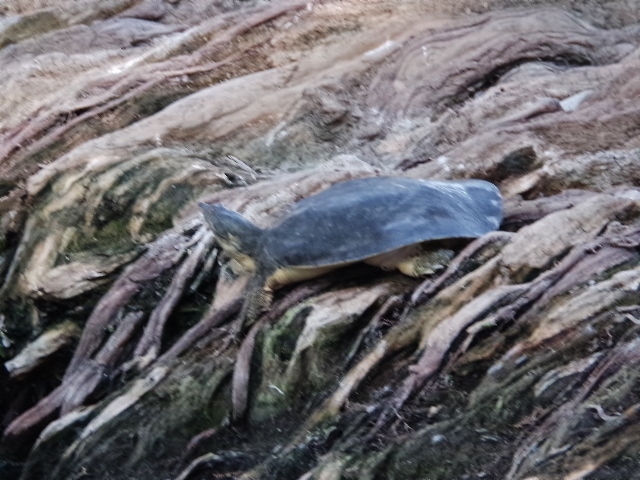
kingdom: Animalia
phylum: Chordata
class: Testudines
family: Trionychidae
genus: Apalone
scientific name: Apalone spinifera
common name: Spiny softshell turtle
